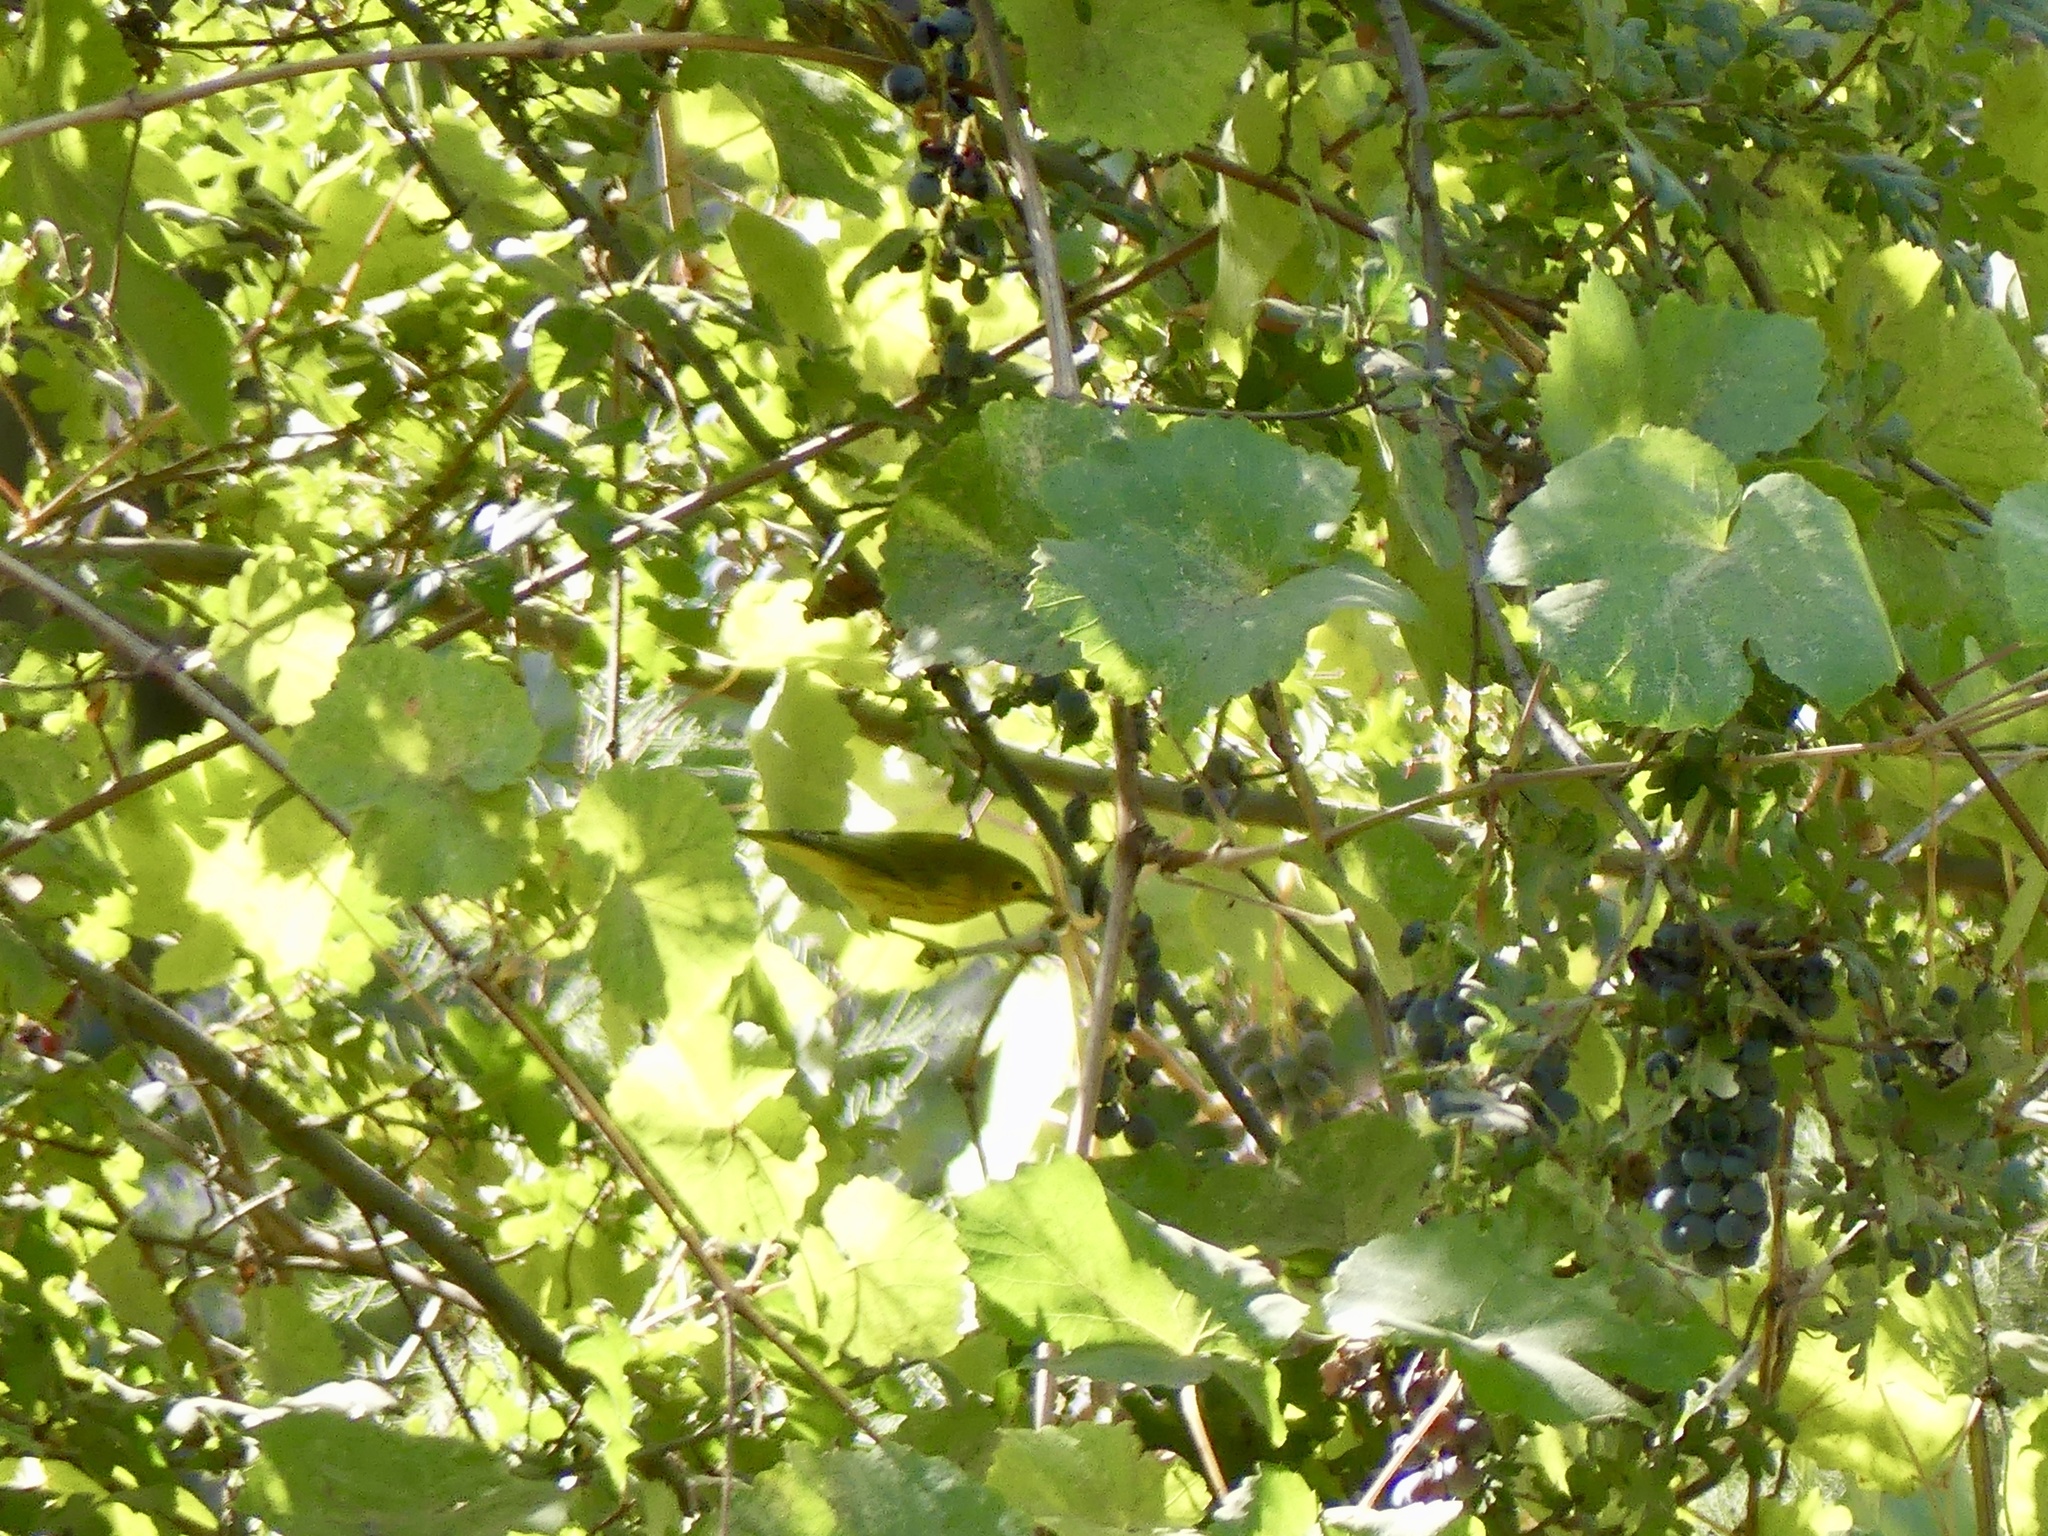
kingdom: Animalia
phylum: Chordata
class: Aves
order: Passeriformes
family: Parulidae
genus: Setophaga
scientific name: Setophaga petechia
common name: Yellow warbler
